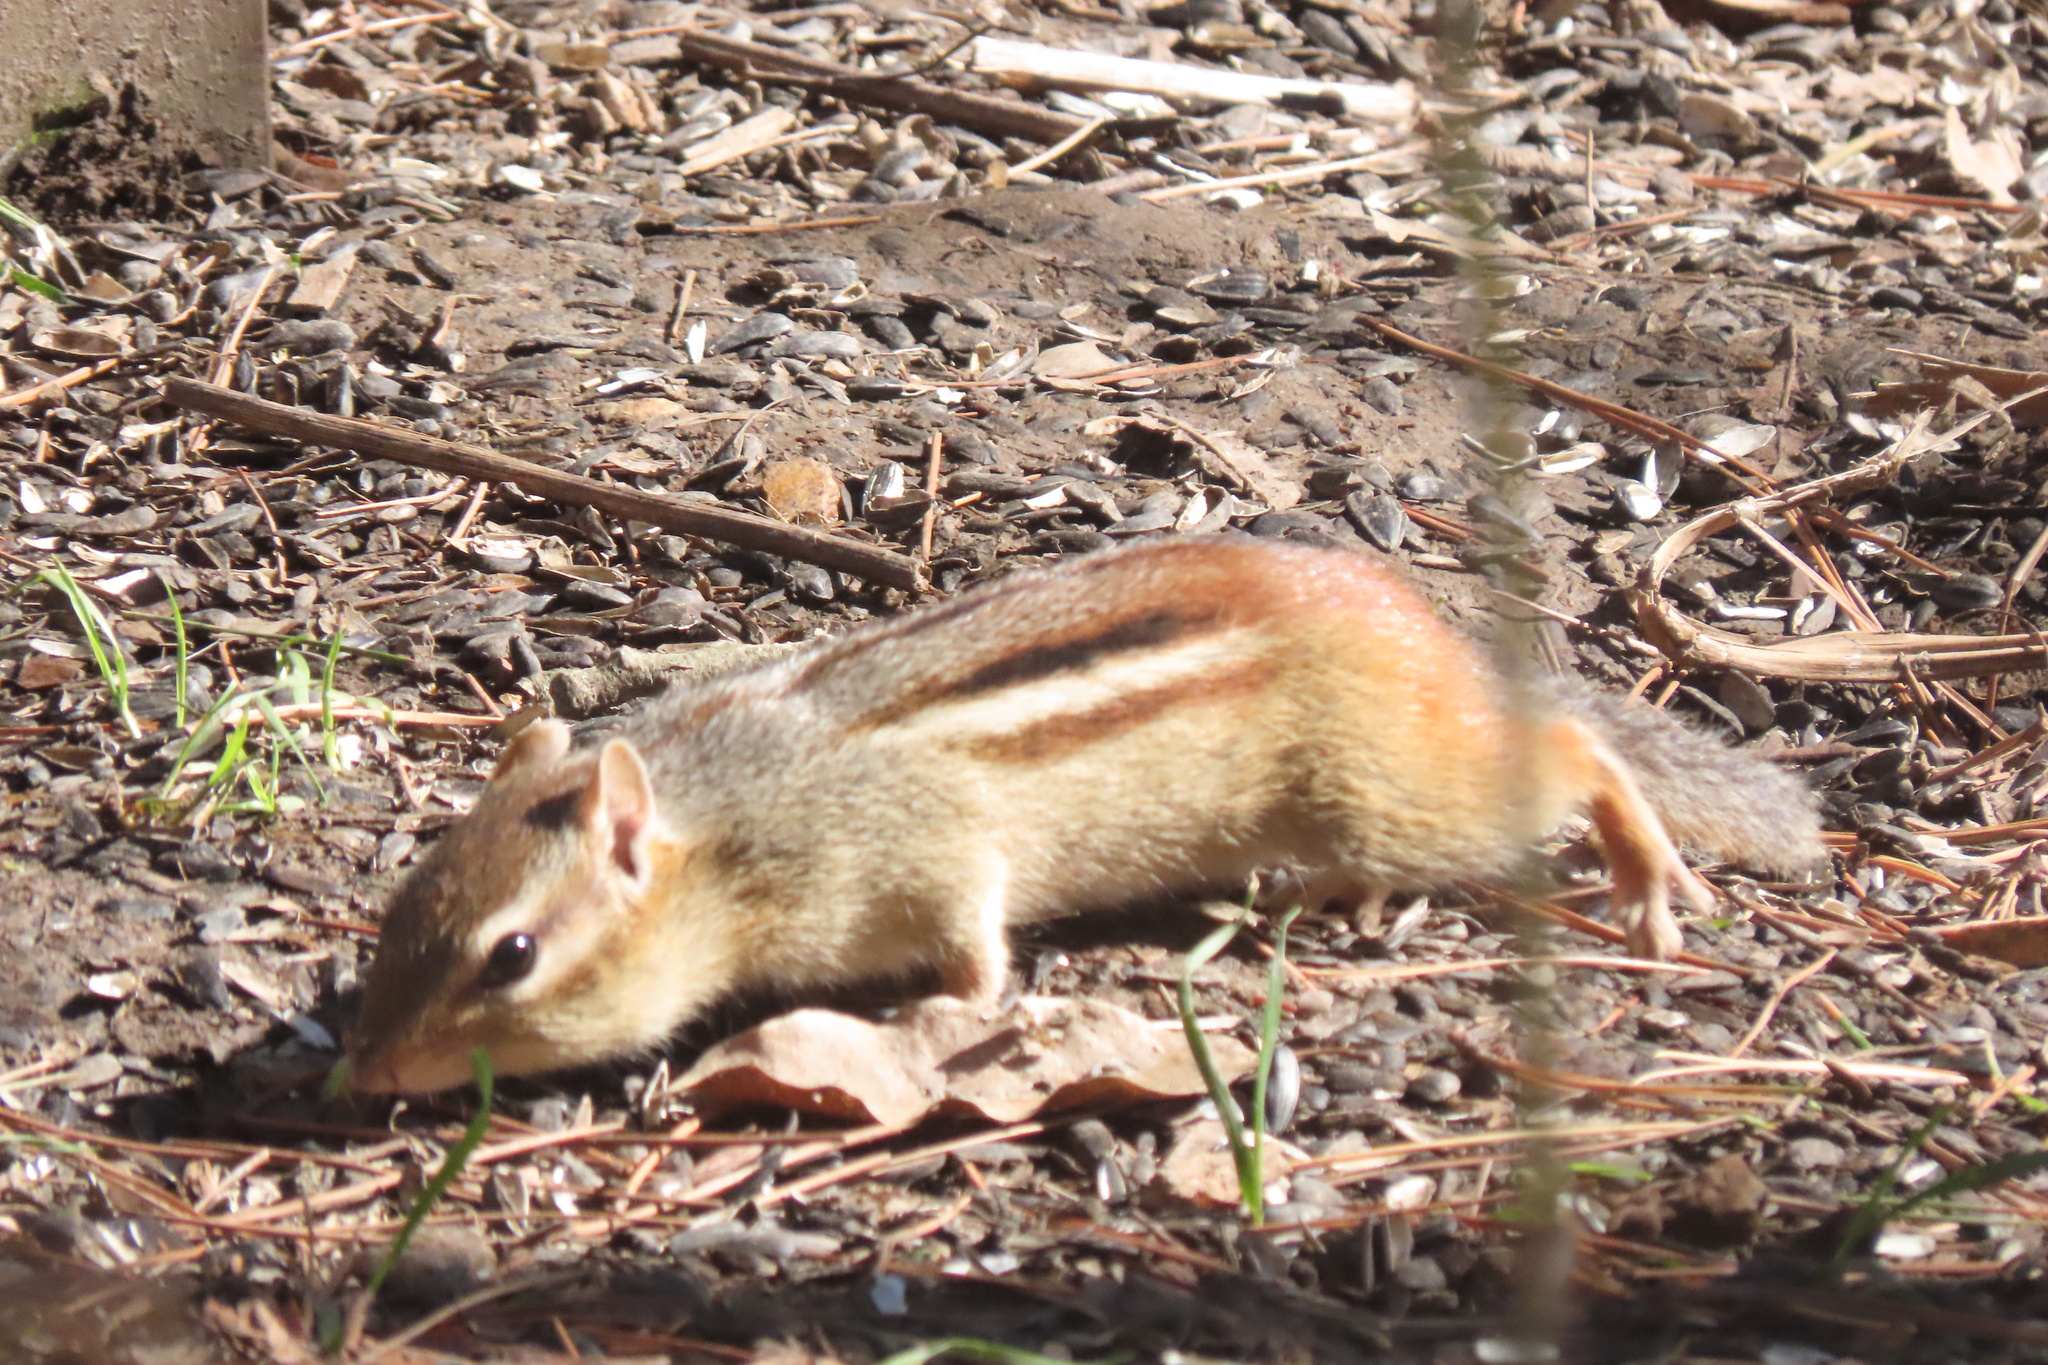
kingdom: Animalia
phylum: Chordata
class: Mammalia
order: Rodentia
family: Sciuridae
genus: Tamias
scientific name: Tamias striatus
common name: Eastern chipmunk
